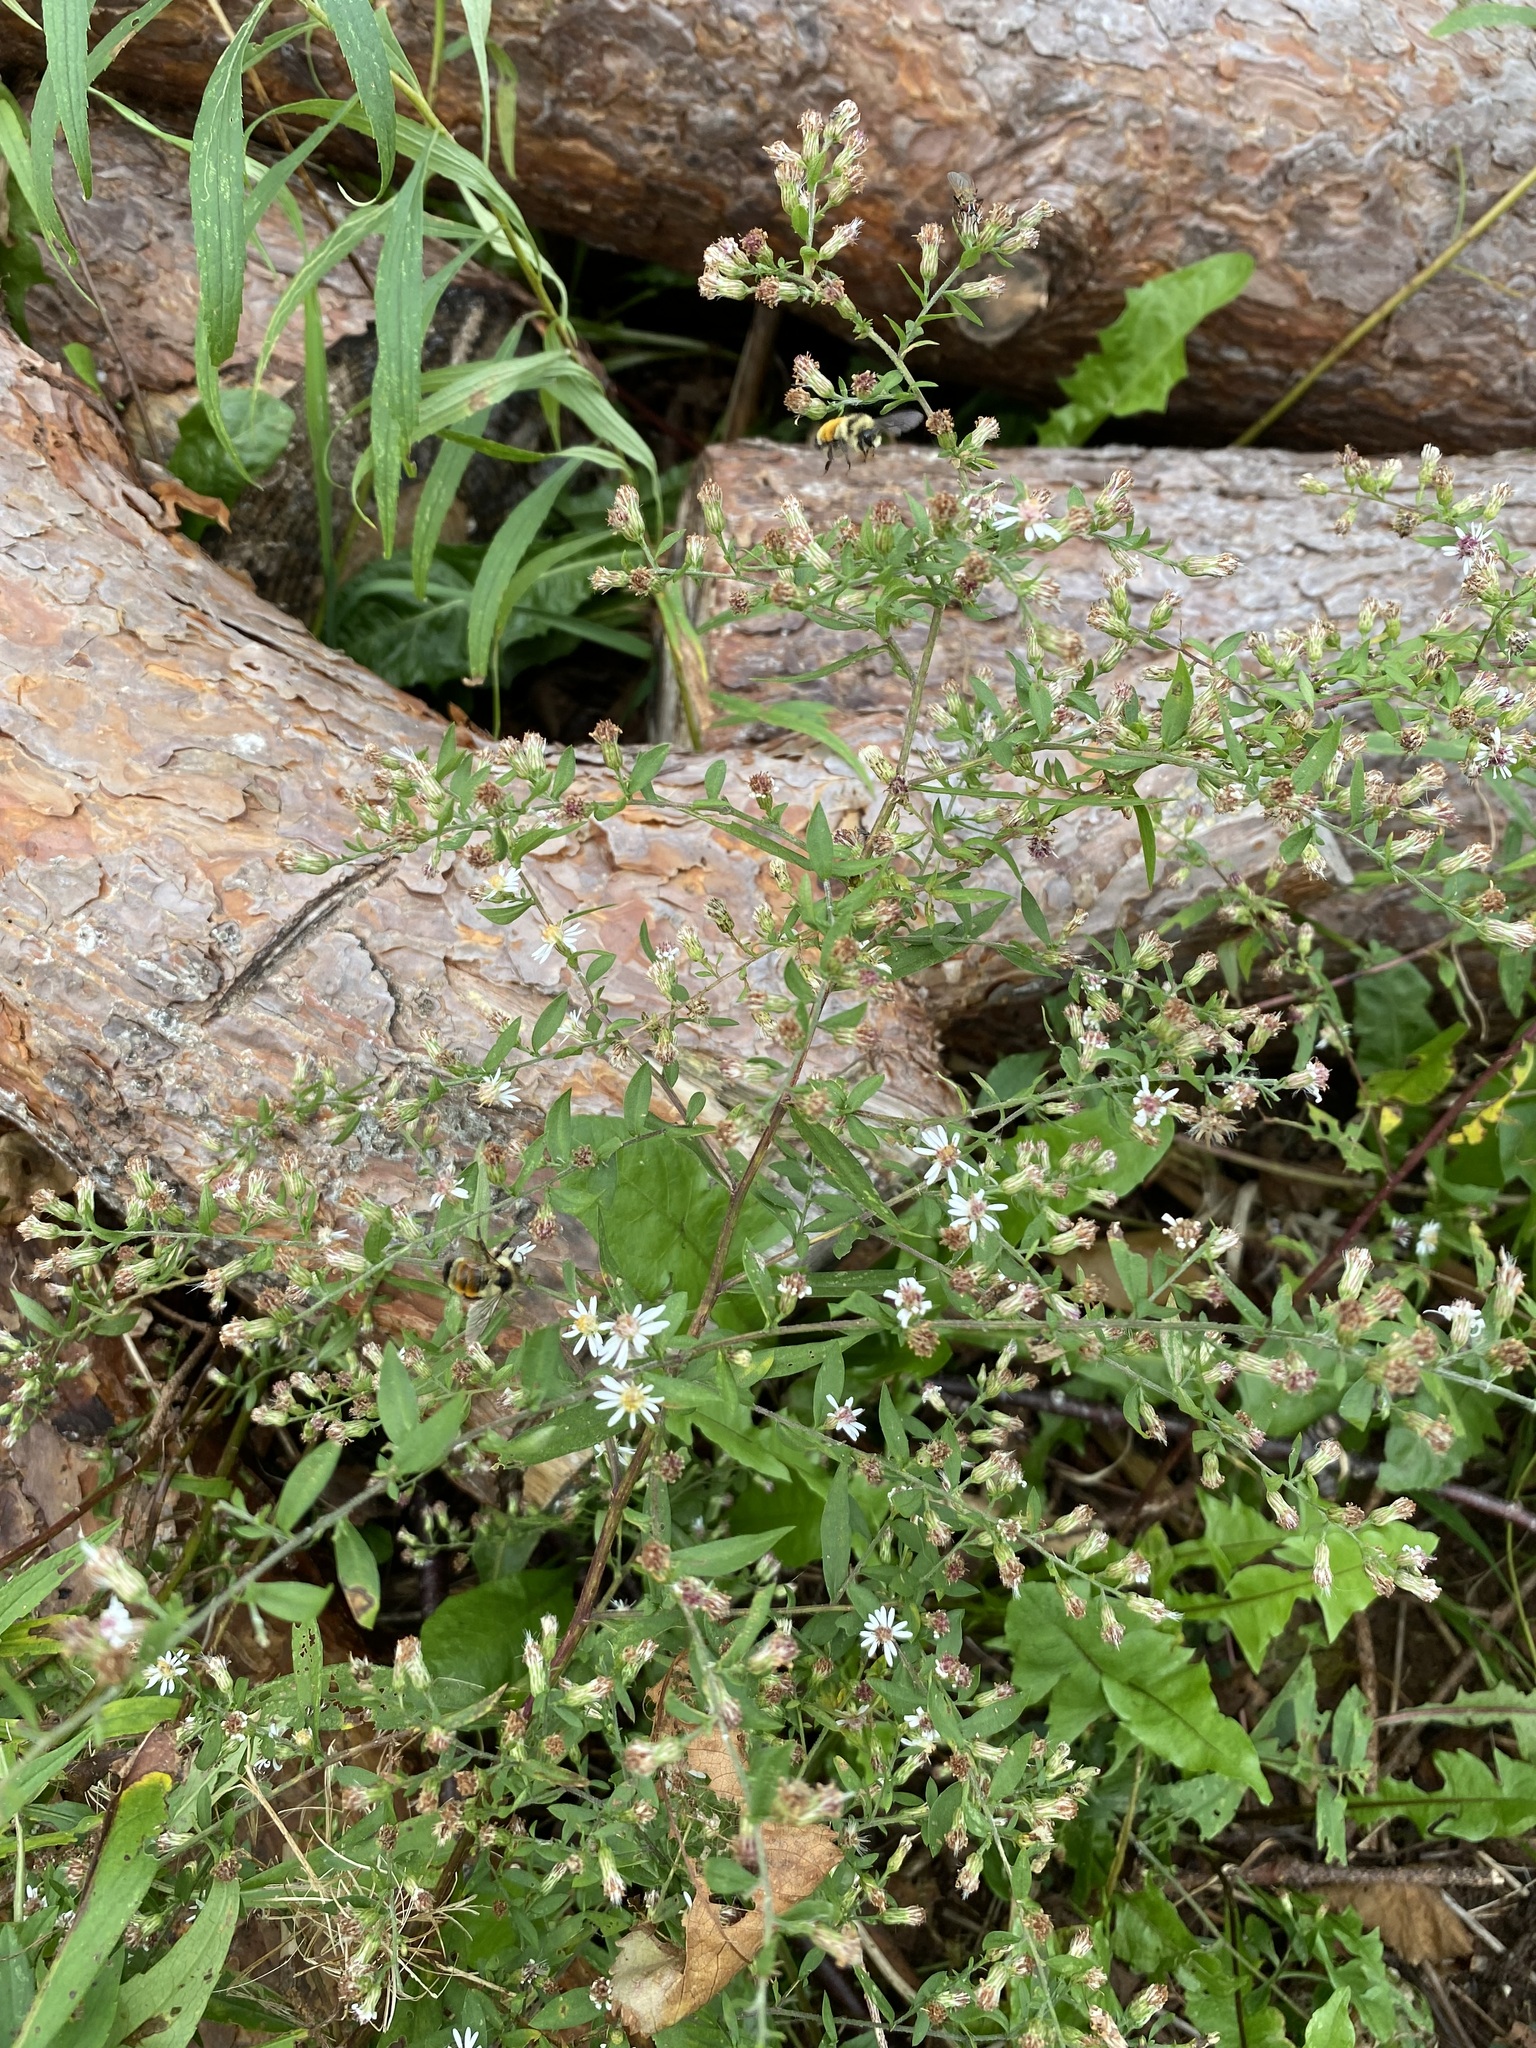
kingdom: Plantae
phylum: Tracheophyta
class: Magnoliopsida
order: Asterales
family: Asteraceae
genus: Symphyotrichum
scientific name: Symphyotrichum lateriflorum
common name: Calico aster
